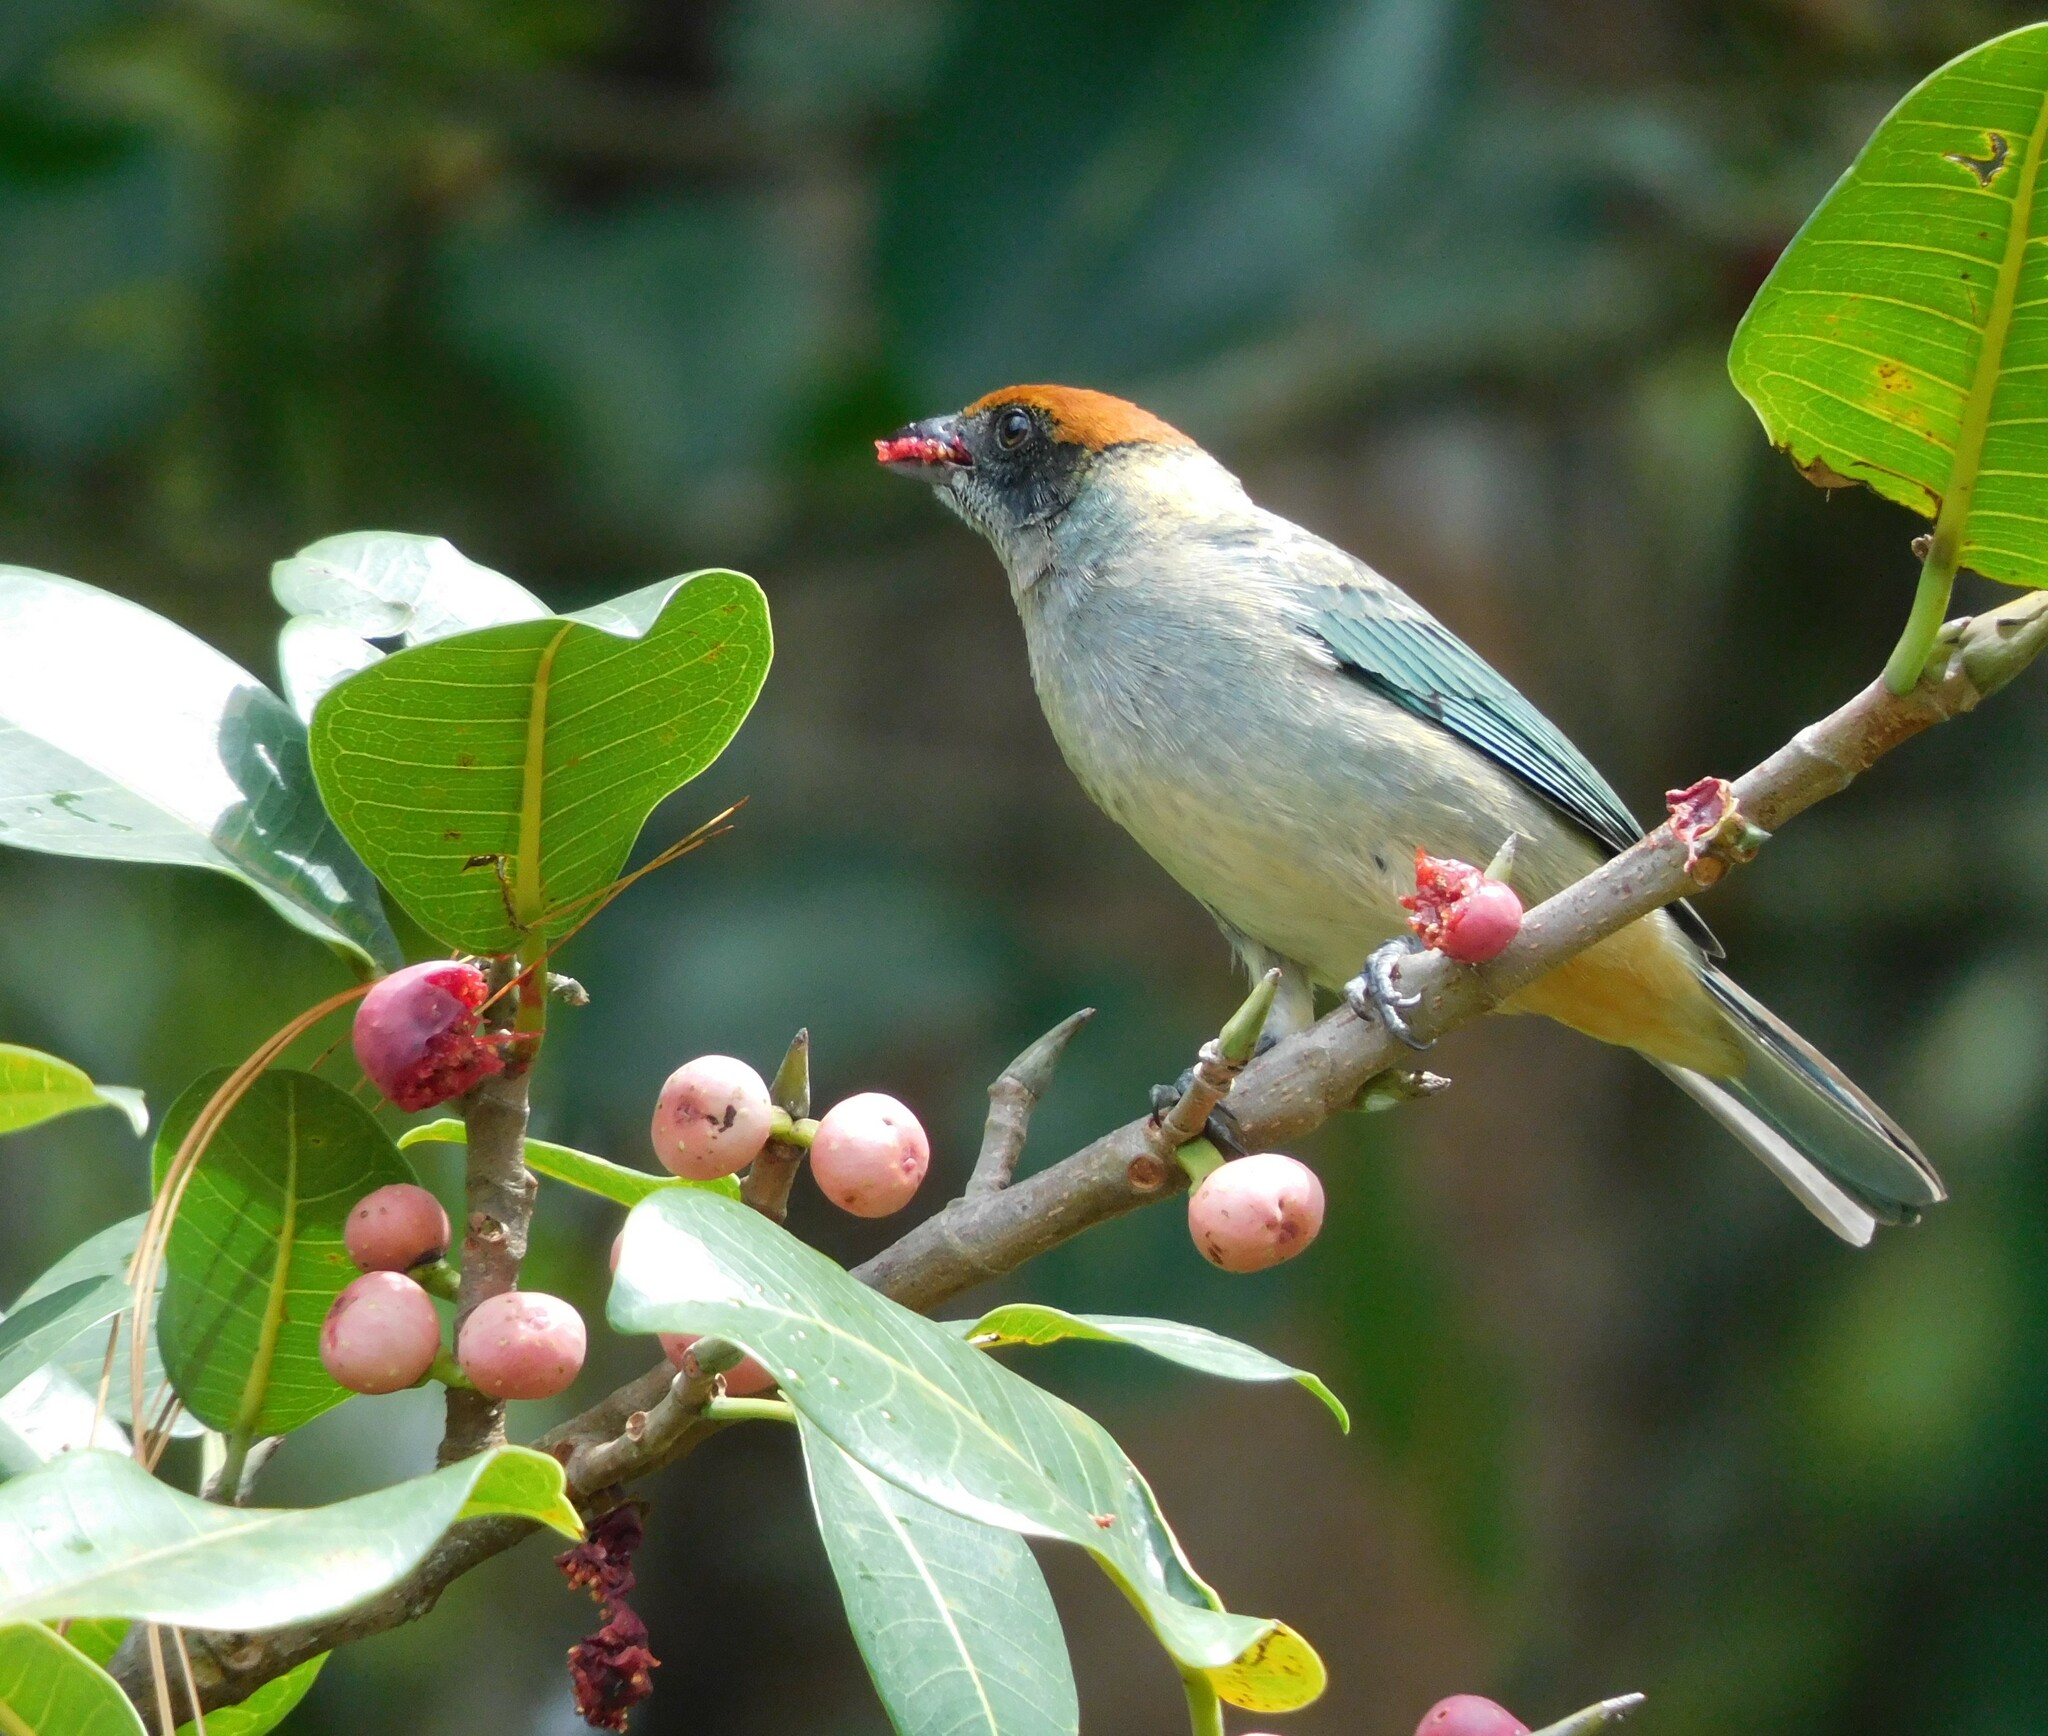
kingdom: Animalia
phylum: Chordata
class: Aves
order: Passeriformes
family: Thraupidae
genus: Stilpnia
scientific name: Stilpnia vitriolina
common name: Scrub tanager
